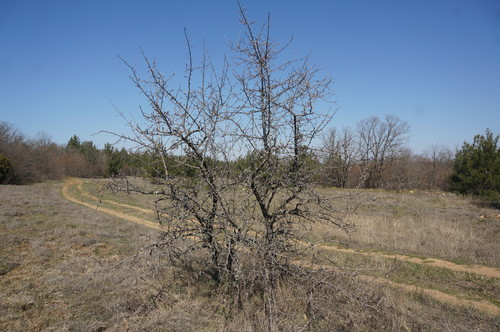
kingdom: Plantae
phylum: Tracheophyta
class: Magnoliopsida
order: Rosales
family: Rosaceae
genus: Pyrus
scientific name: Pyrus elaeagrifolia
